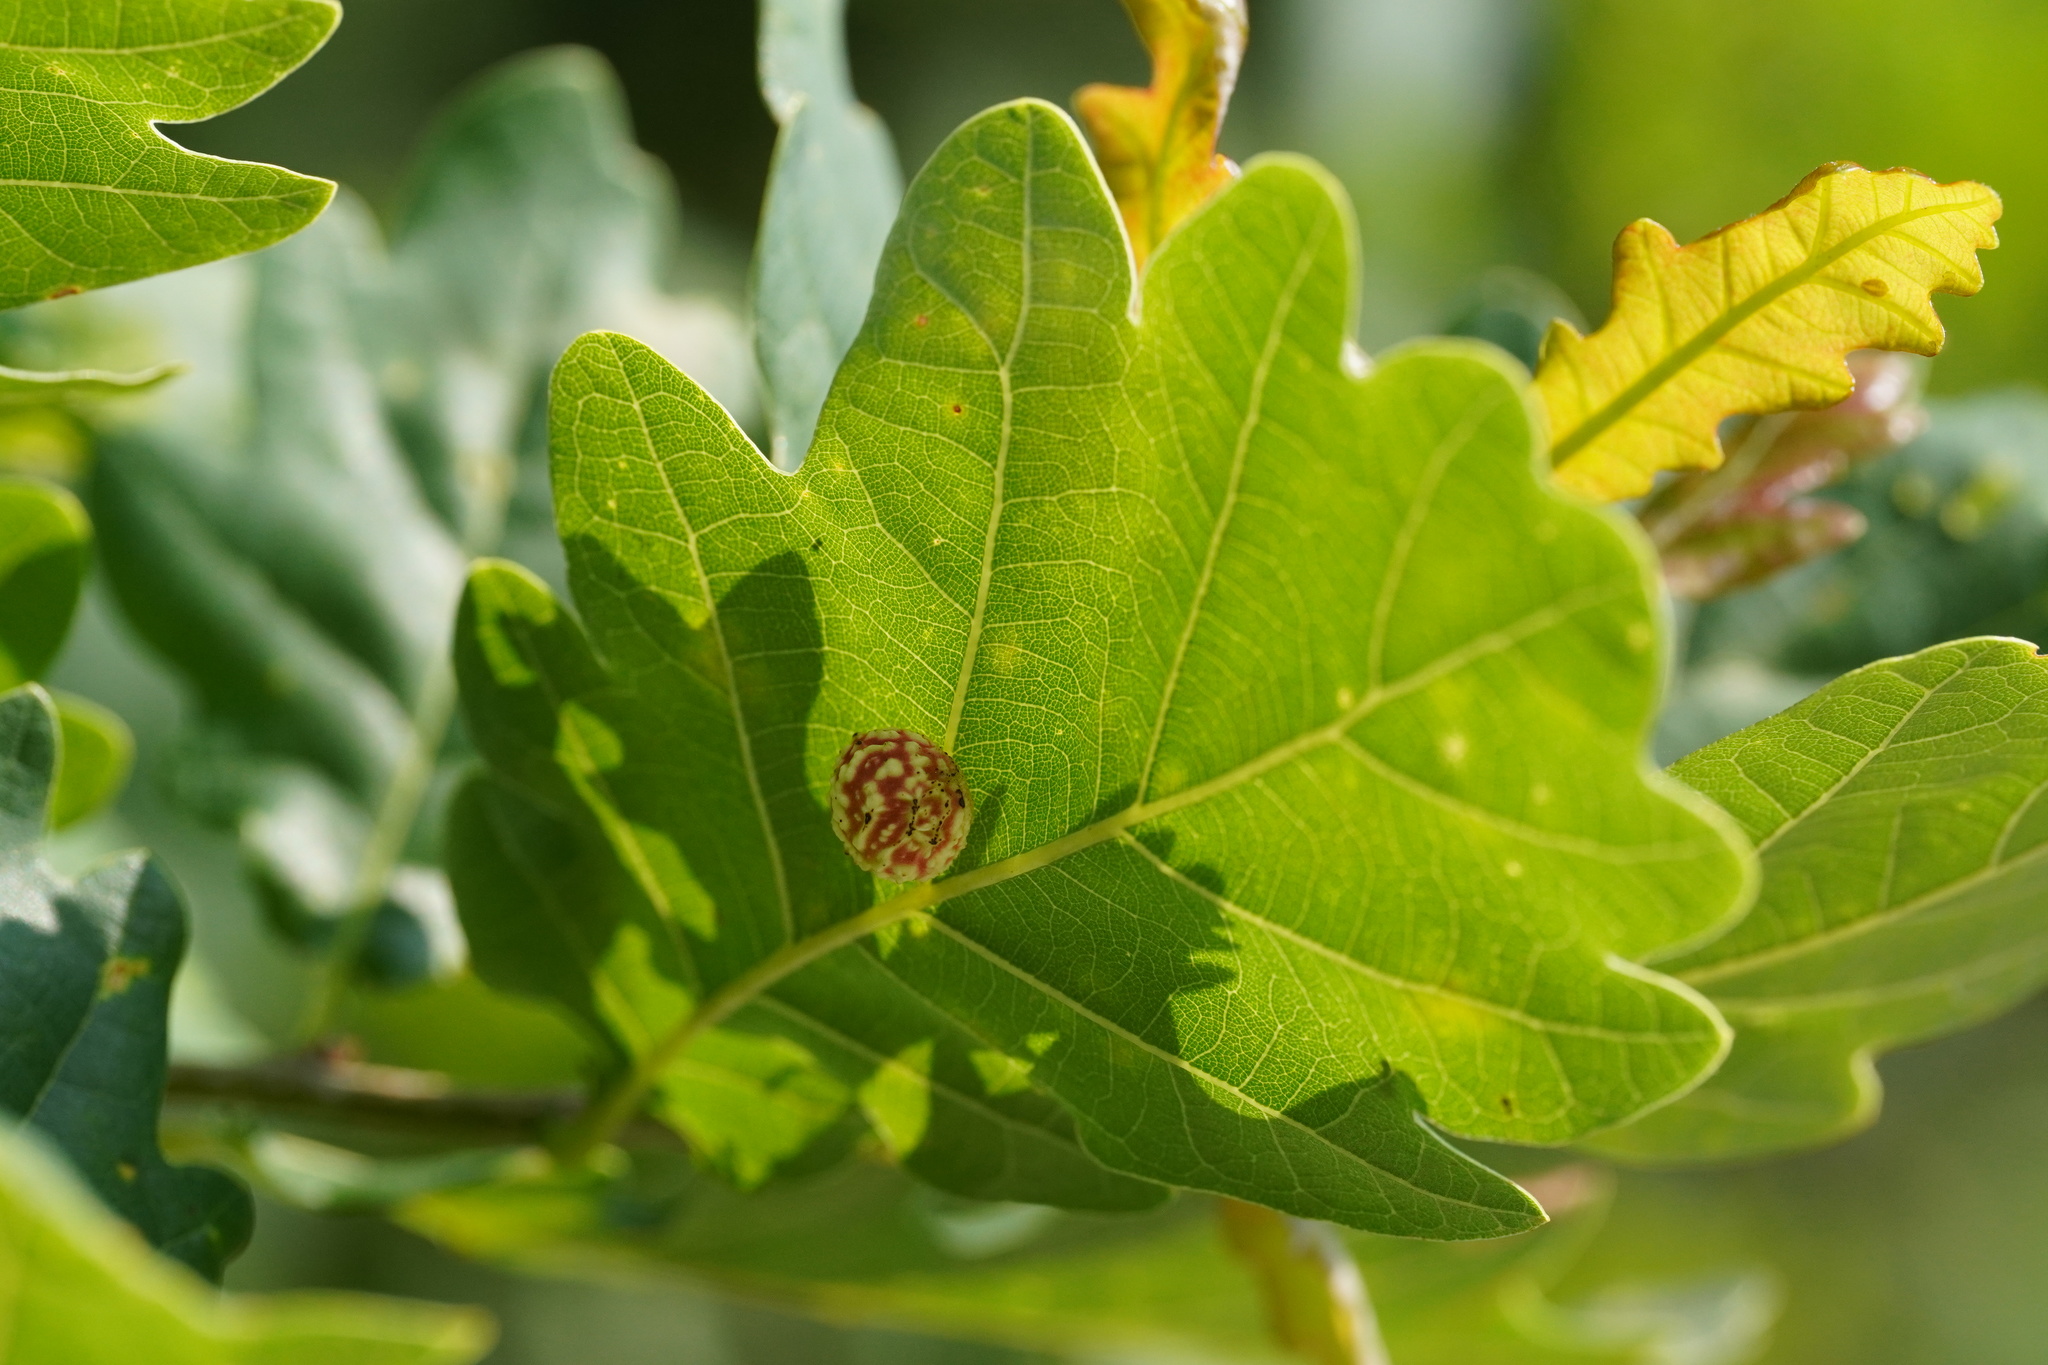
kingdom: Animalia
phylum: Arthropoda
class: Insecta
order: Hymenoptera
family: Cynipidae
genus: Cynips
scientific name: Cynips longiventris
